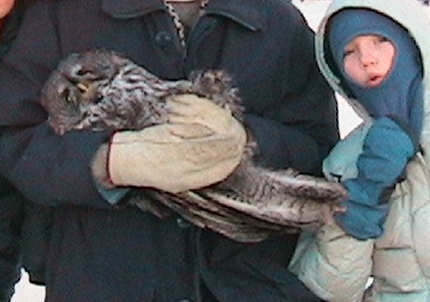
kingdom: Animalia
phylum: Chordata
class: Aves
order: Strigiformes
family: Strigidae
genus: Strix
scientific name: Strix nebulosa
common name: Great grey owl
